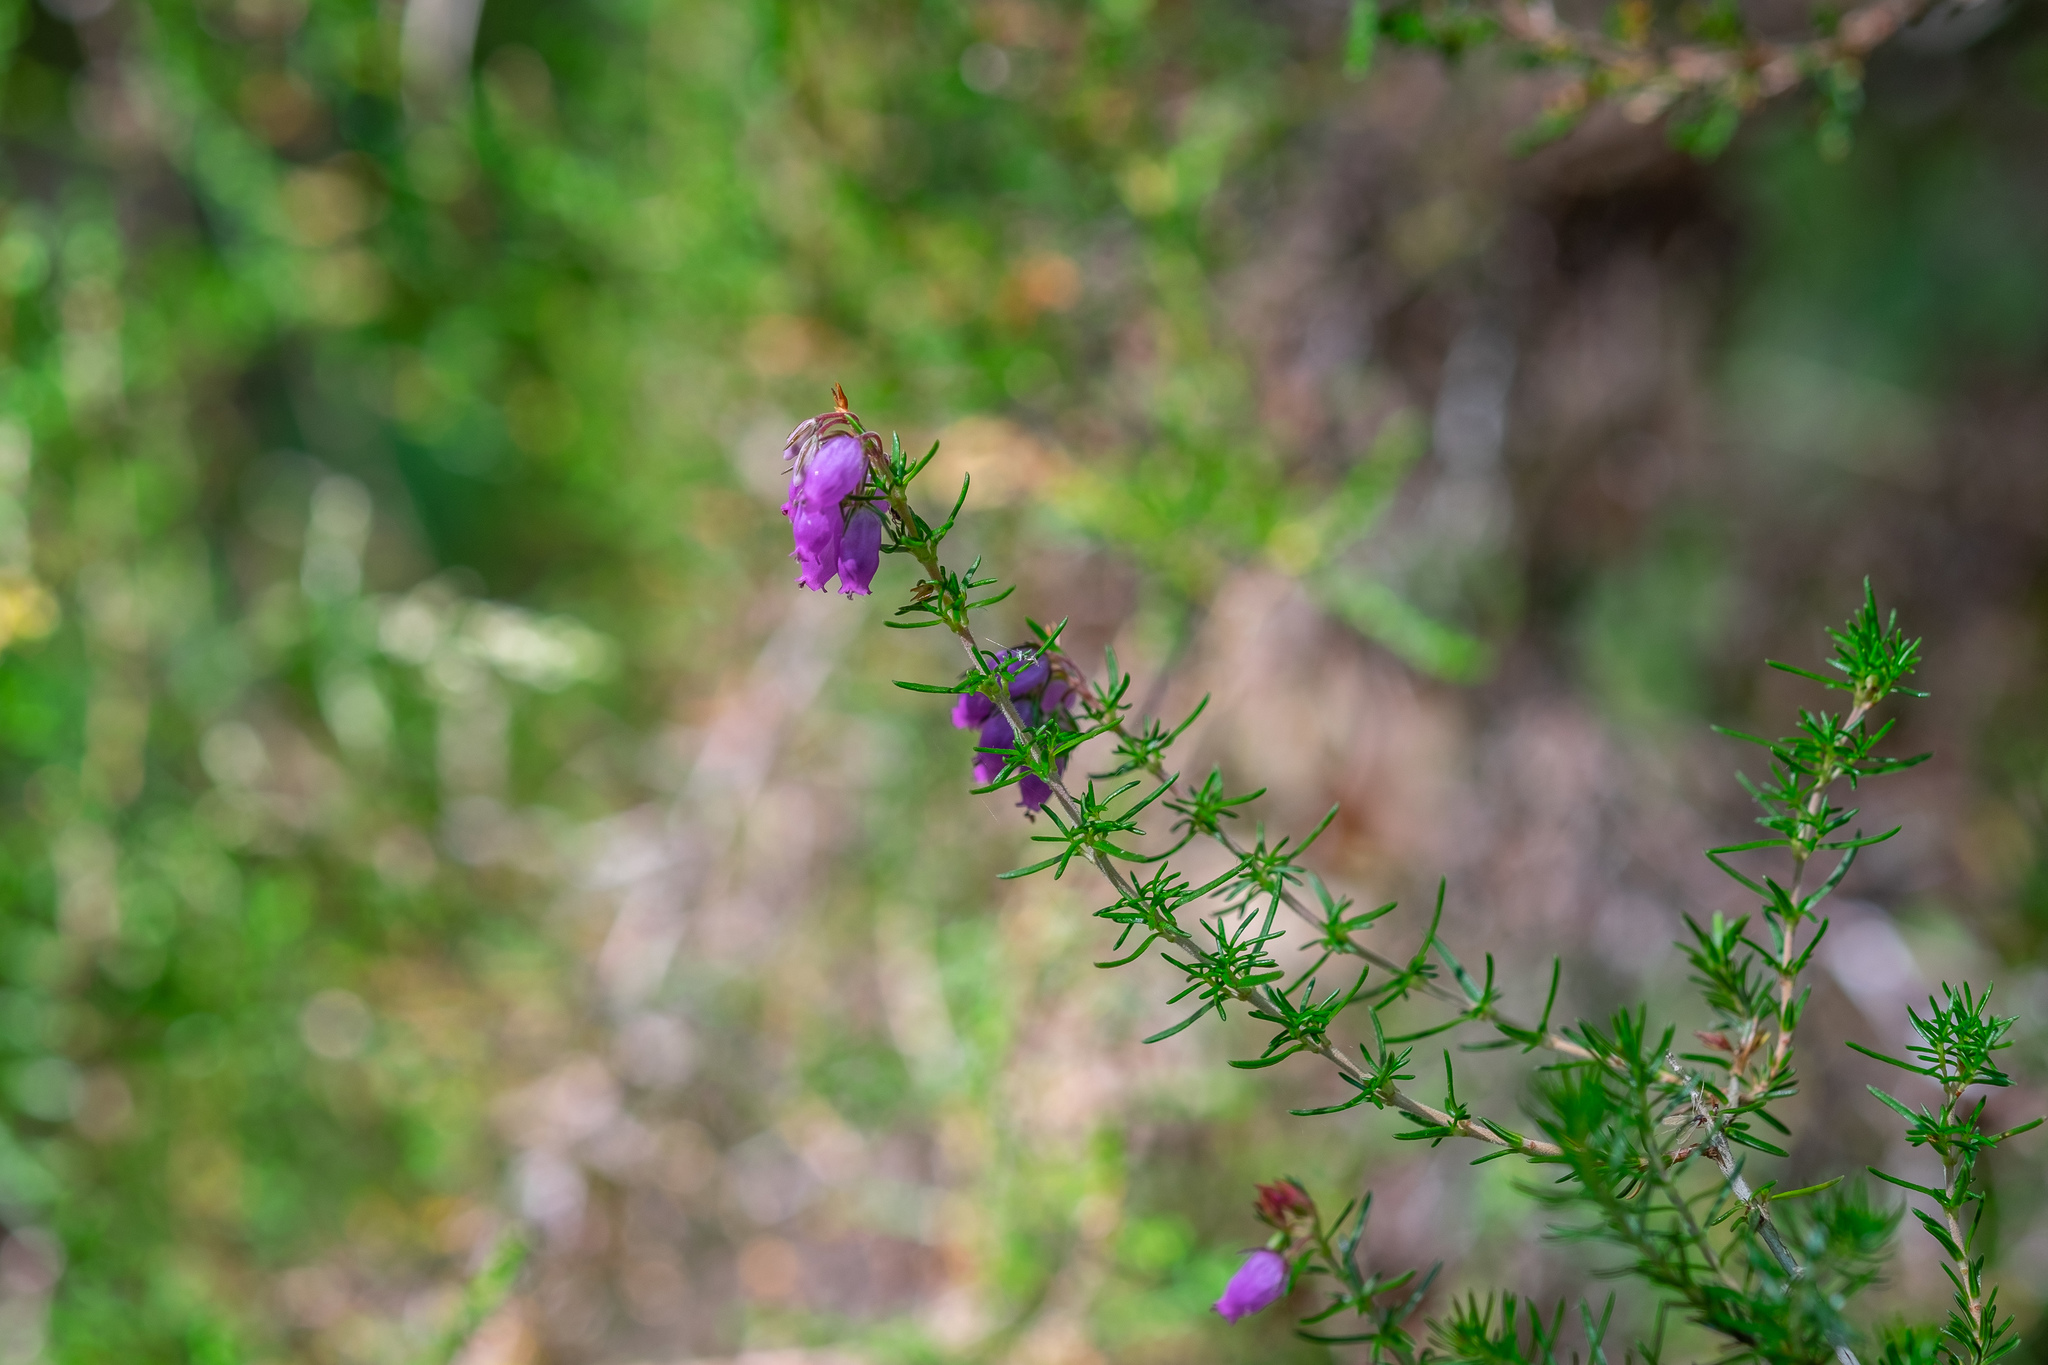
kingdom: Plantae
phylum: Tracheophyta
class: Magnoliopsida
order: Ericales
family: Ericaceae
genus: Erica
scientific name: Erica cinerea
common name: Bell heather
